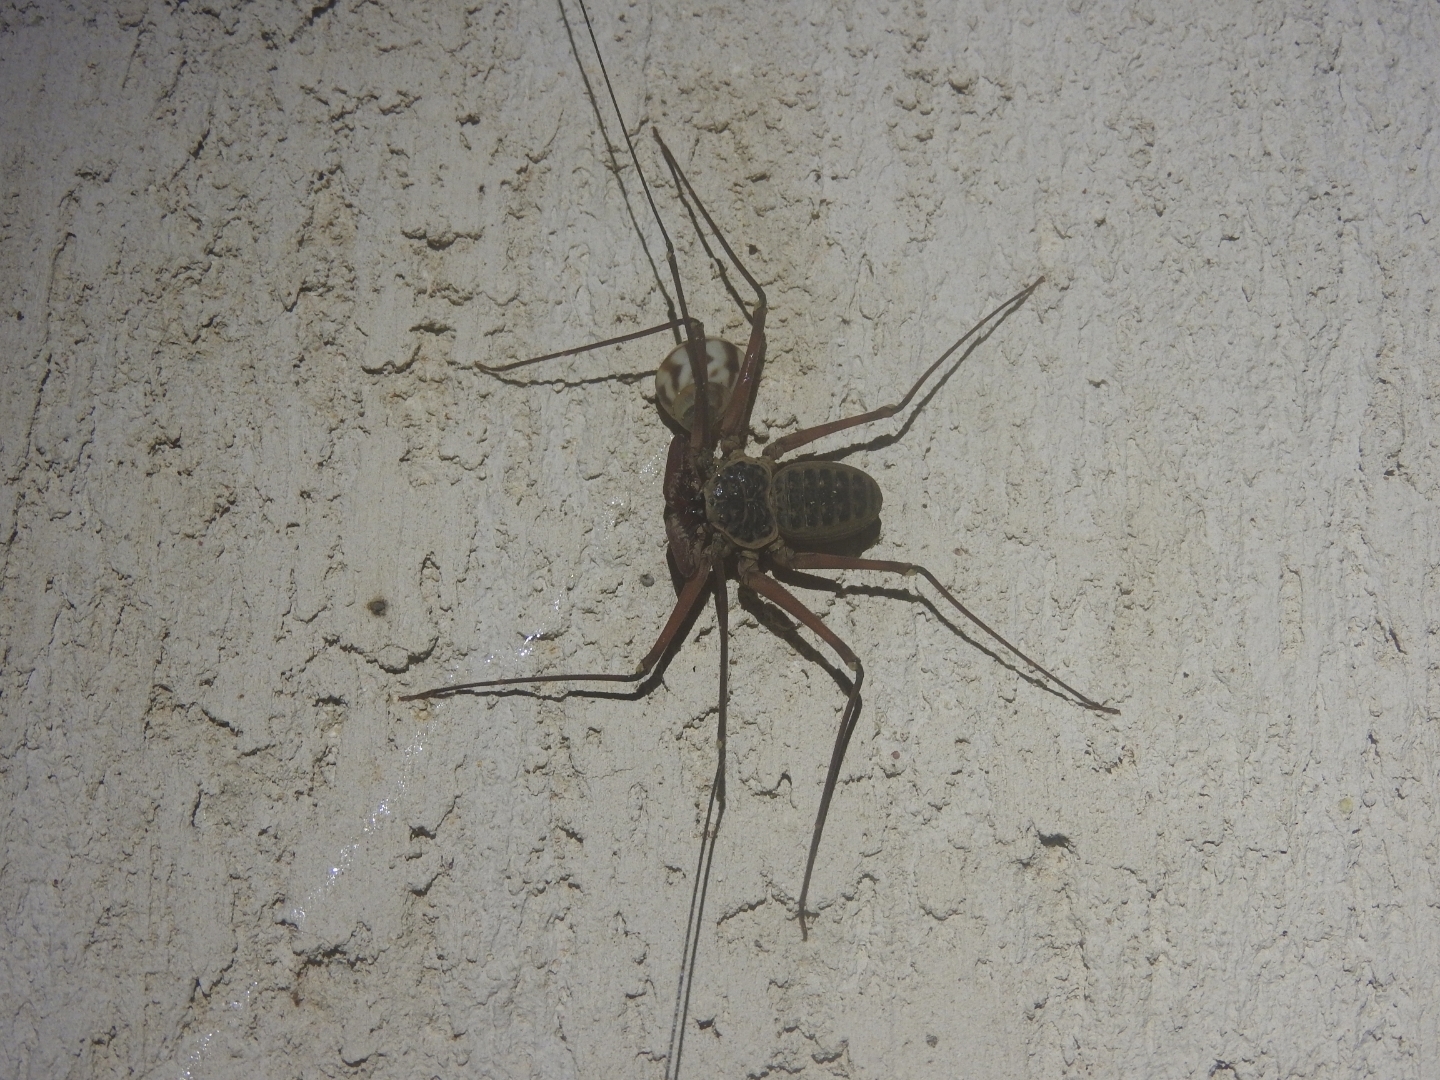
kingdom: Animalia
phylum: Arthropoda
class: Arachnida
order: Amblypygi
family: Phrynidae
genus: Phrynus
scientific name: Phrynus operculatus
